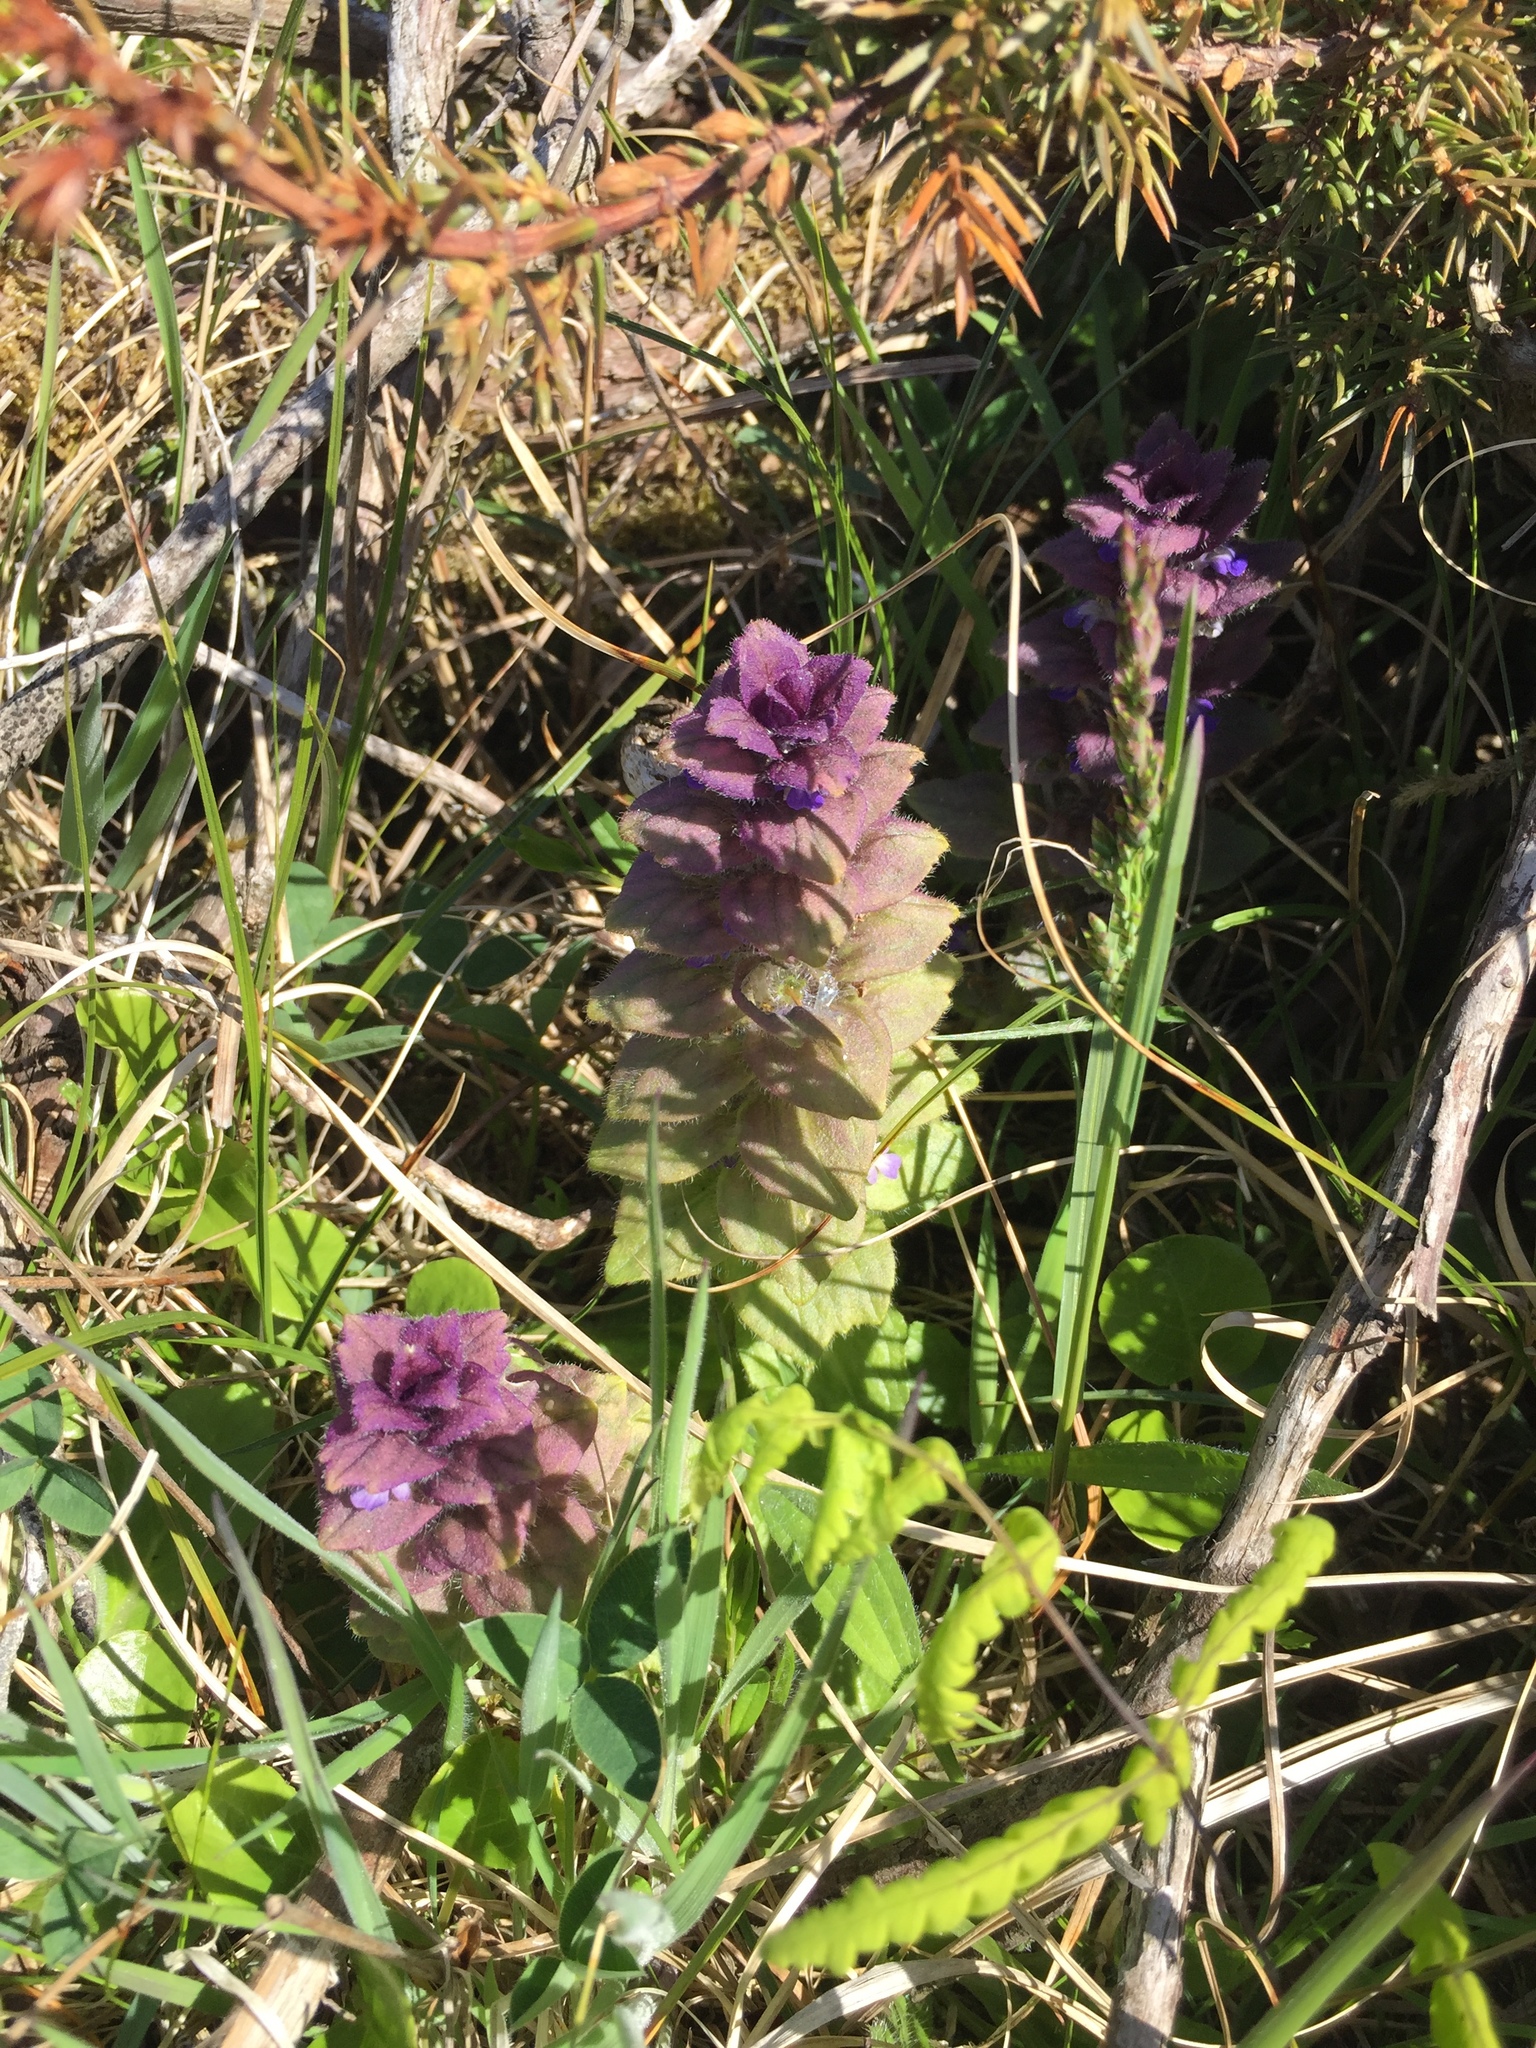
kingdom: Plantae
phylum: Tracheophyta
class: Magnoliopsida
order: Lamiales
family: Lamiaceae
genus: Ajuga
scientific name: Ajuga pyramidalis
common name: Pyramid bugle
